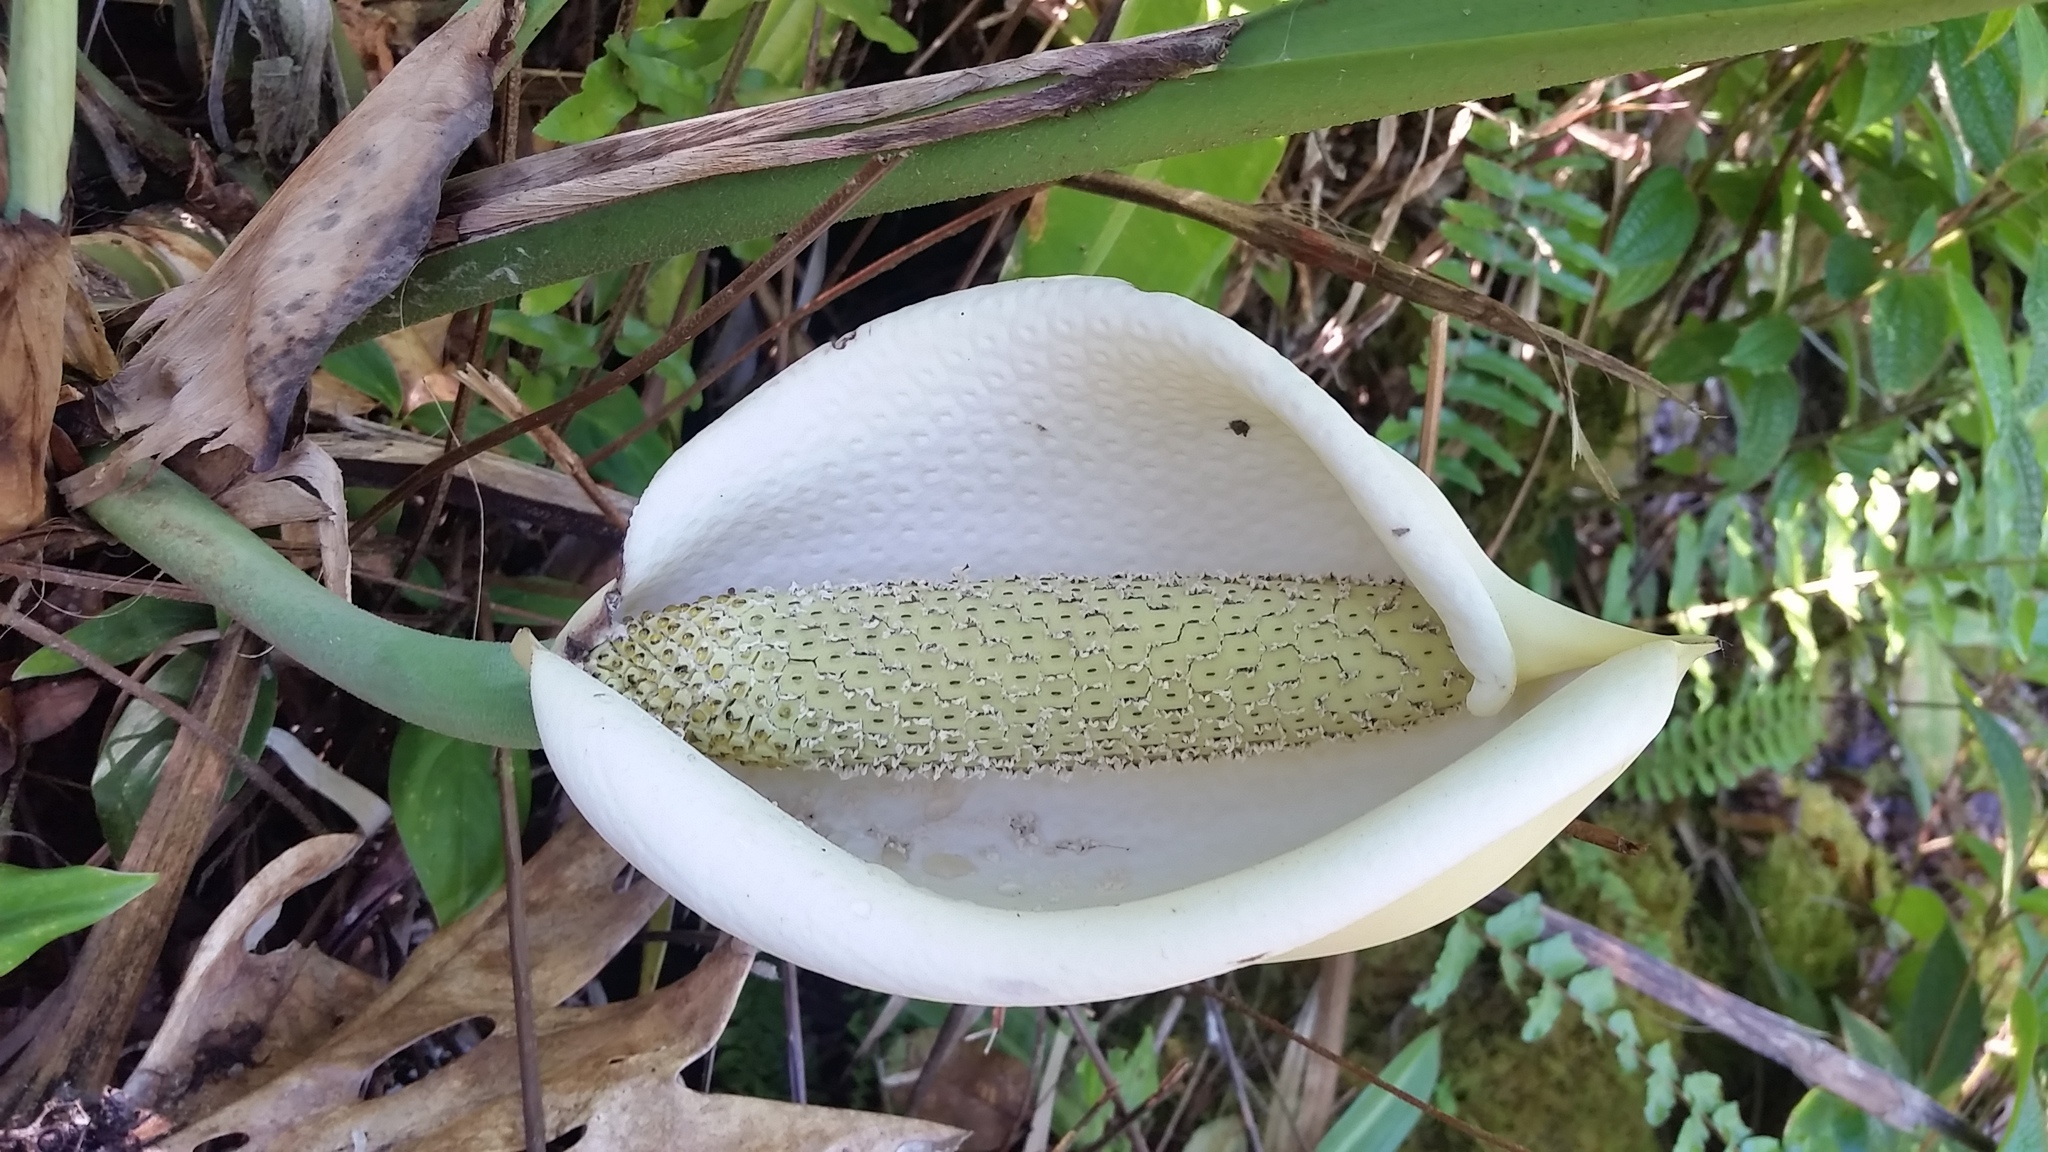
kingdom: Plantae
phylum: Tracheophyta
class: Liliopsida
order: Alismatales
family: Araceae
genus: Monstera
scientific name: Monstera deliciosa
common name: Cut-leaf-philodendron
